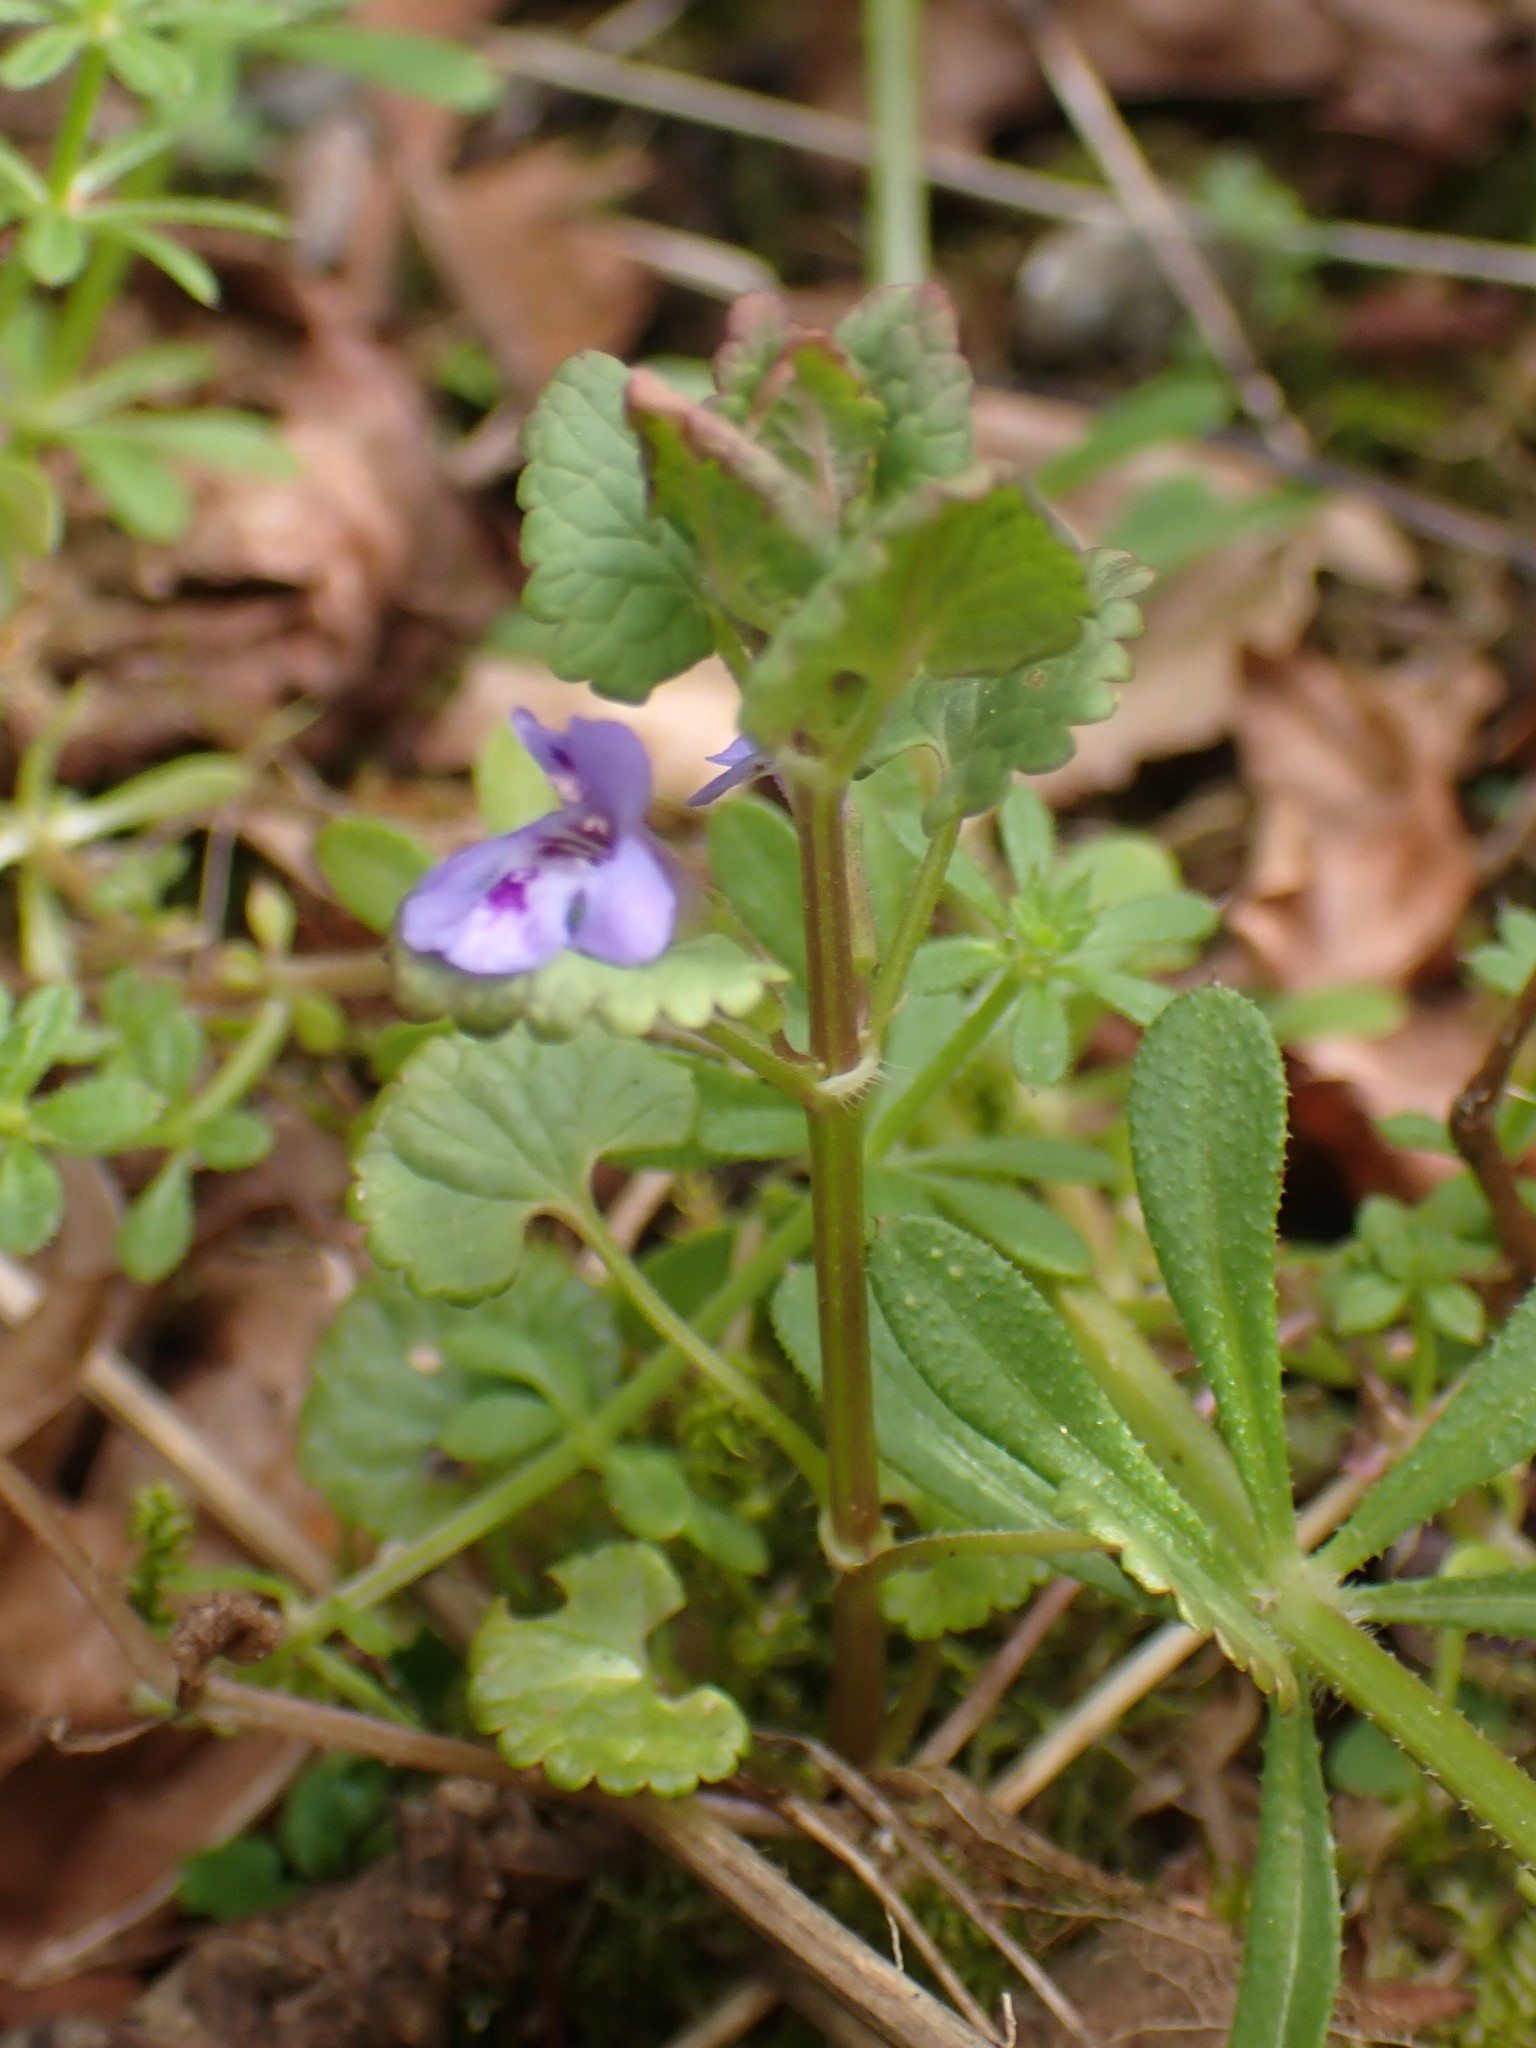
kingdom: Plantae
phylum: Tracheophyta
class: Magnoliopsida
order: Lamiales
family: Lamiaceae
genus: Glechoma
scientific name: Glechoma hederacea
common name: Ground ivy
